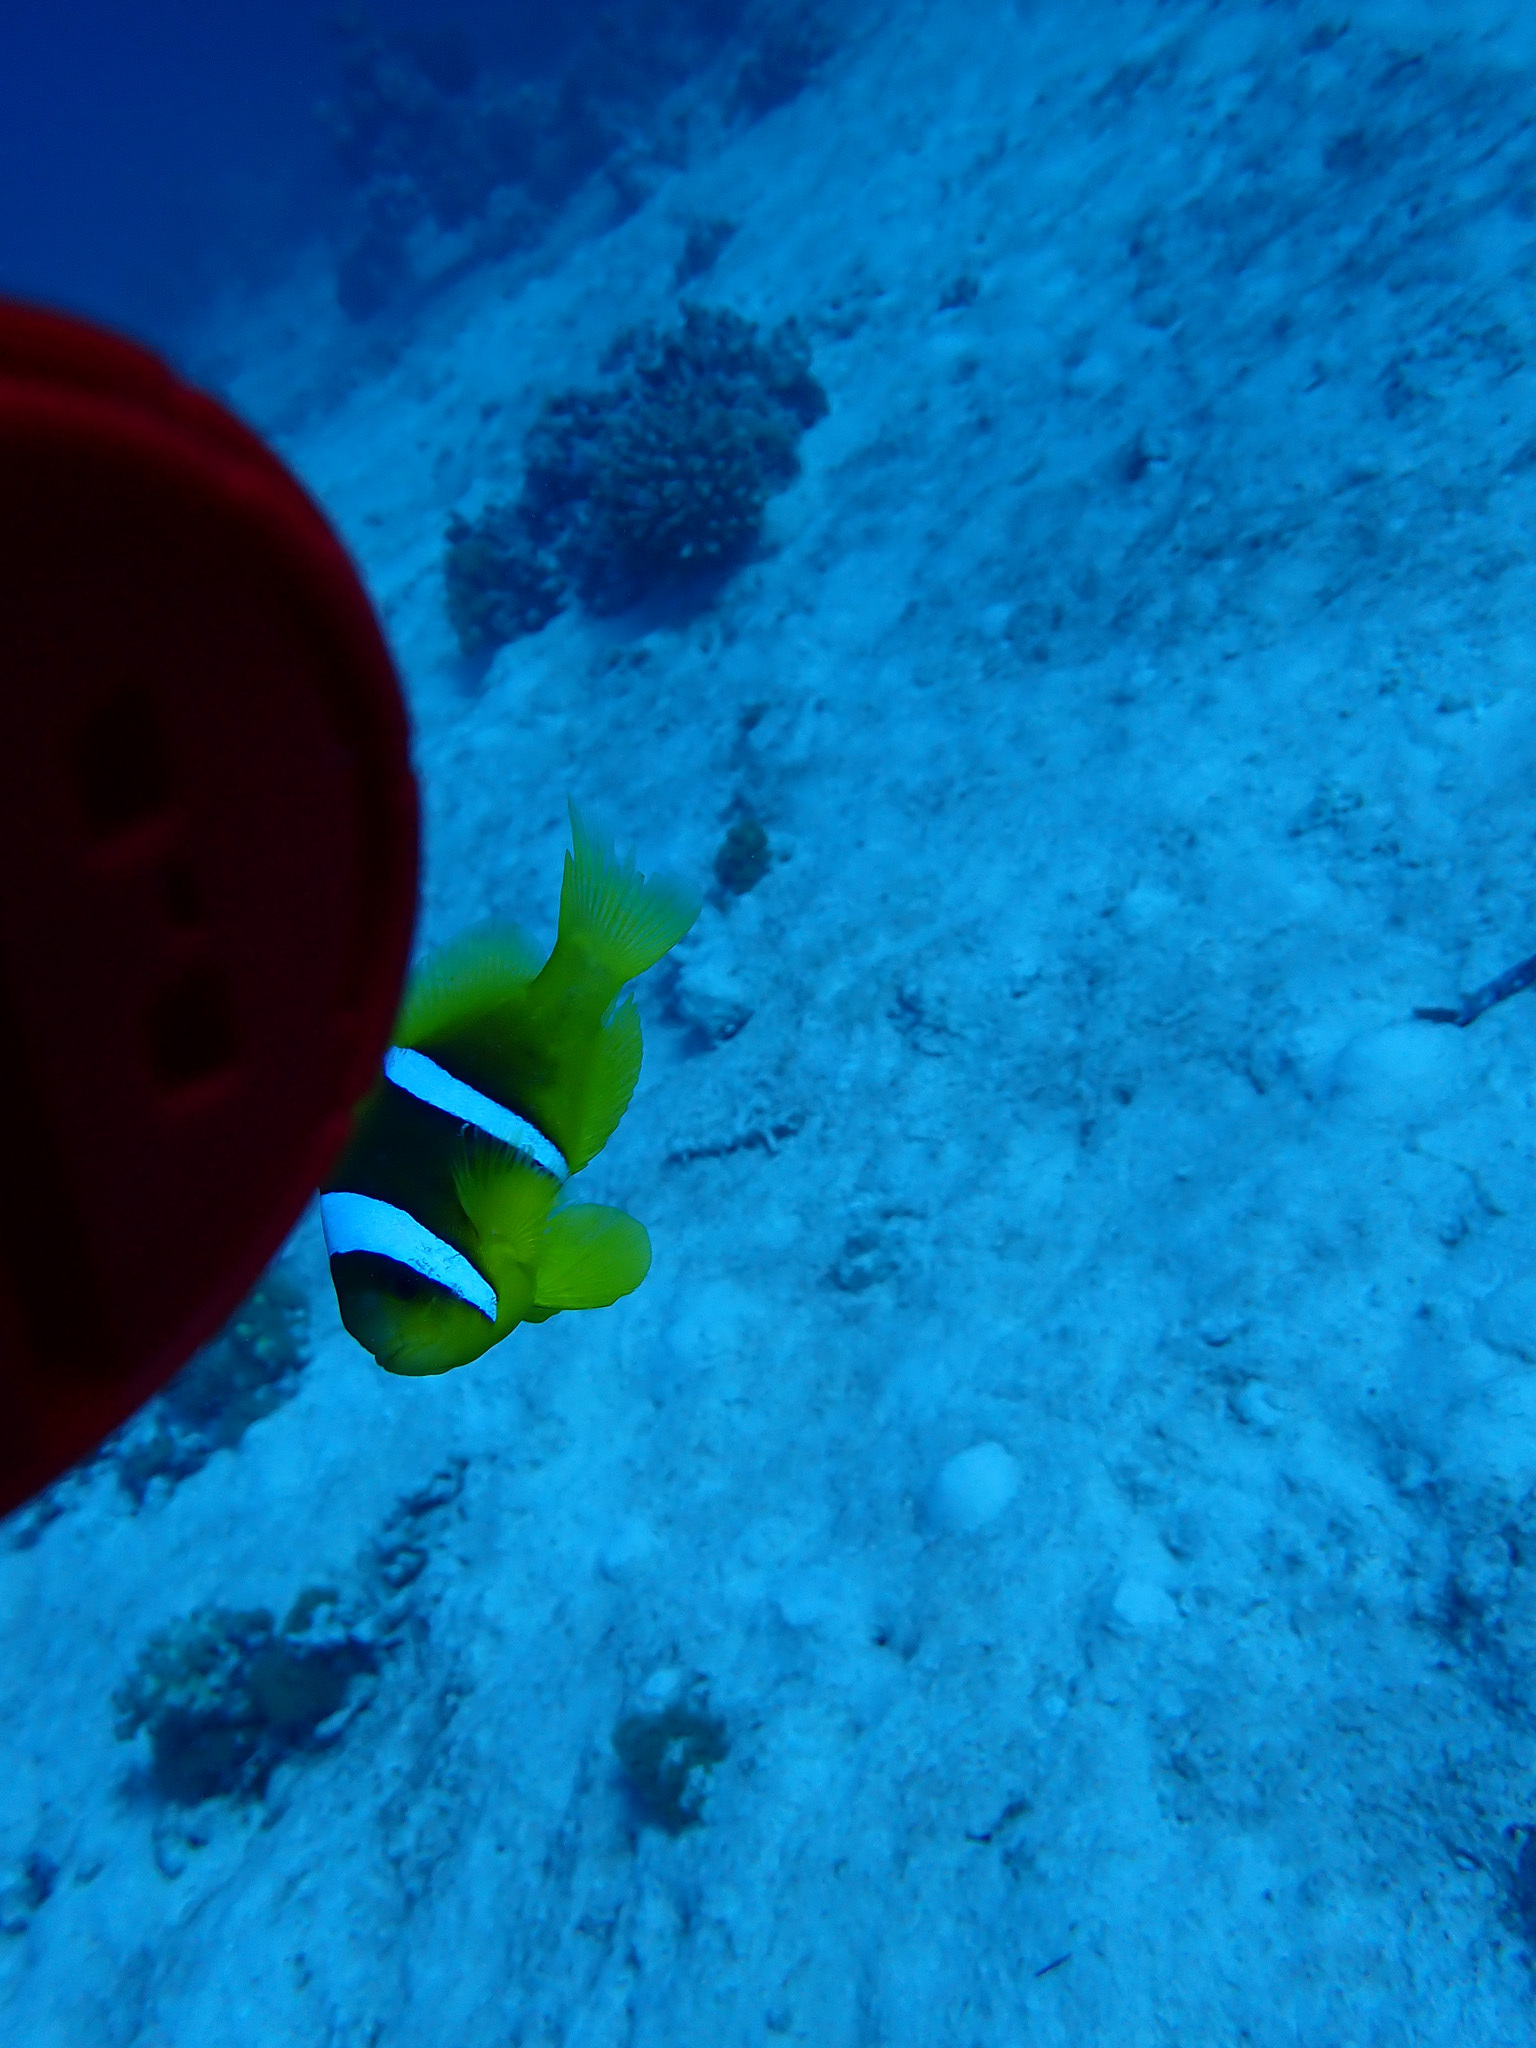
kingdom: Animalia
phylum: Chordata
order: Perciformes
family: Pomacentridae
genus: Amphiprion
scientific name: Amphiprion bicinctus
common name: Two-banded anemonefish
